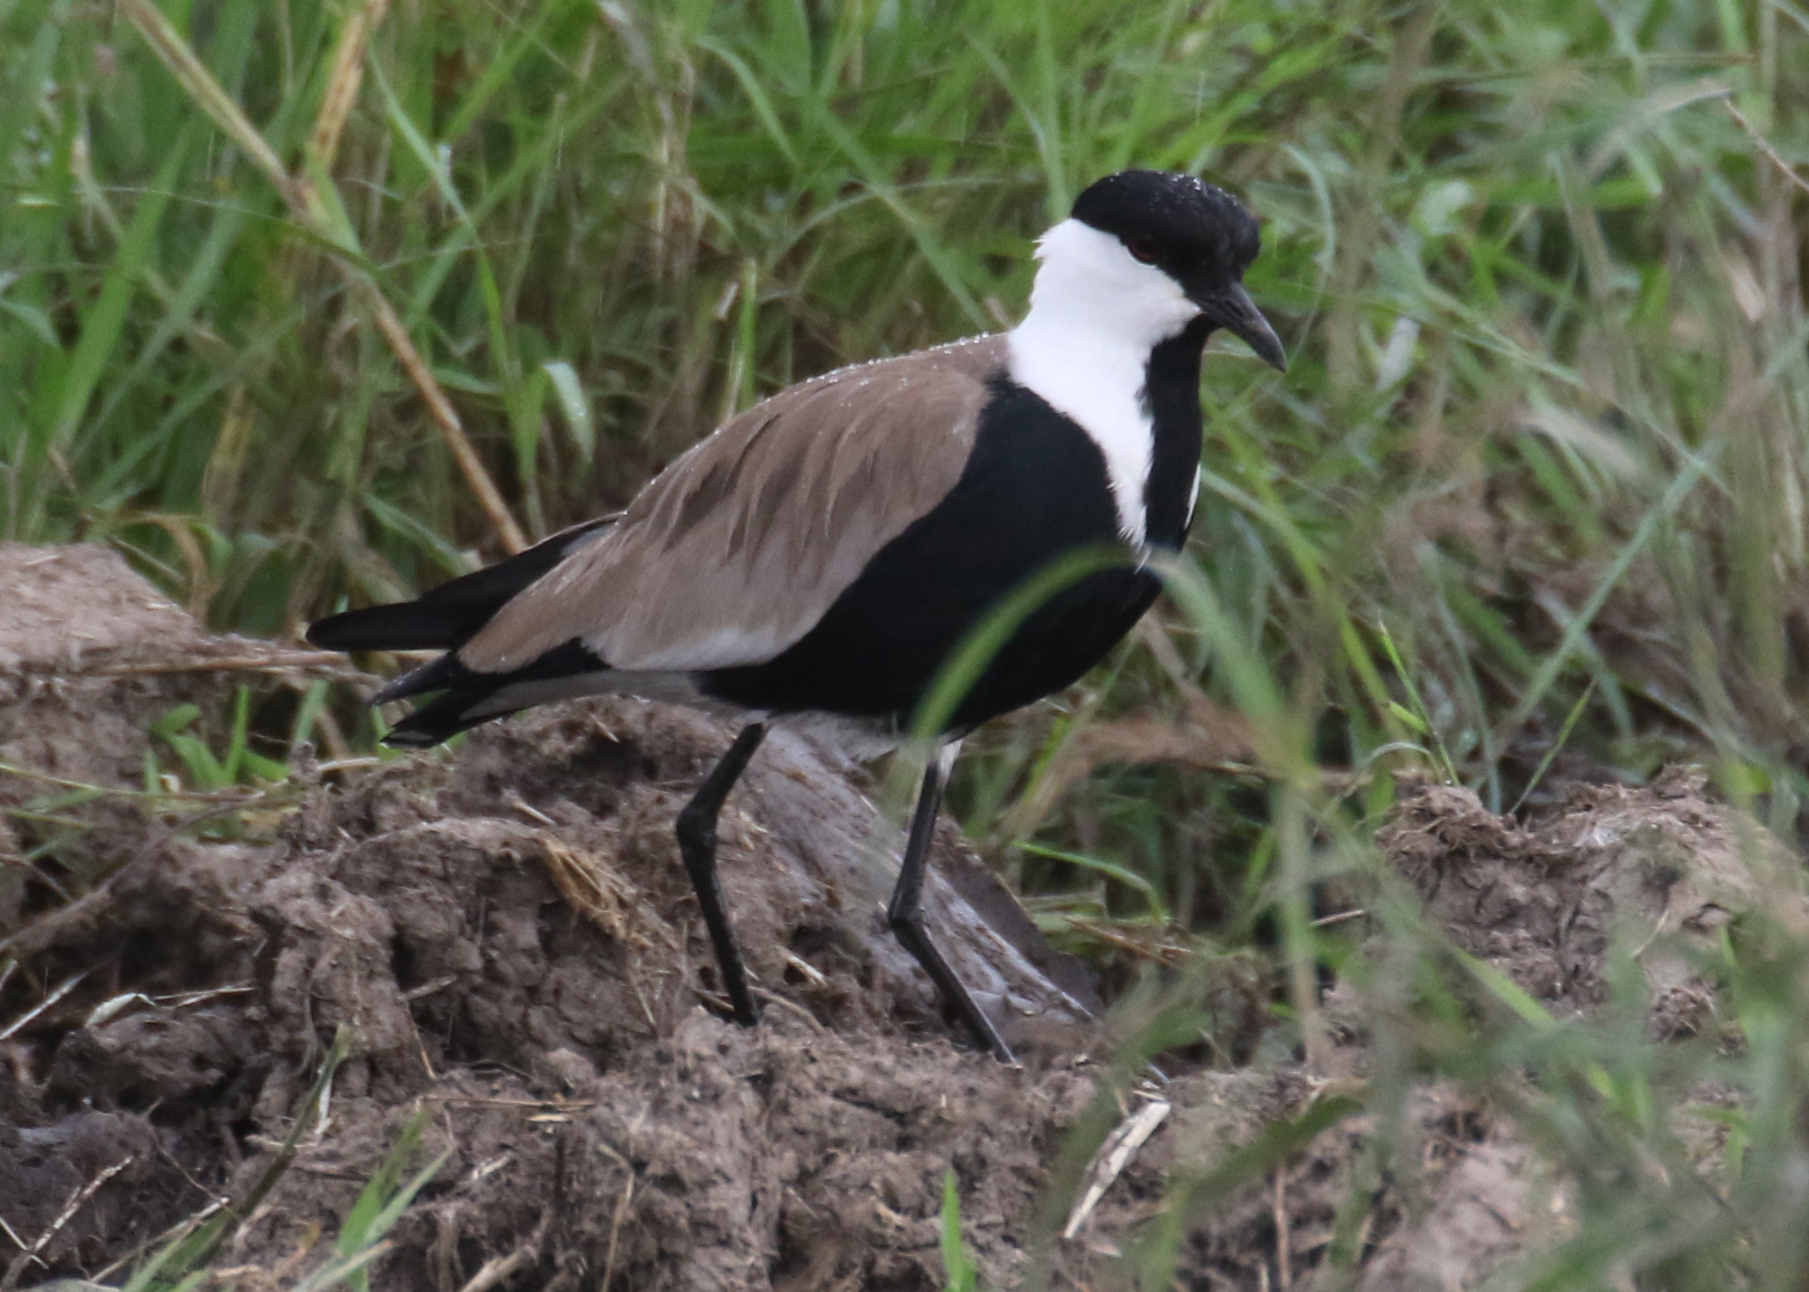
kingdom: Animalia
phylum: Chordata
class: Aves
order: Charadriiformes
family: Charadriidae
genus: Vanellus
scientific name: Vanellus spinosus
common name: Spur-winged lapwing
